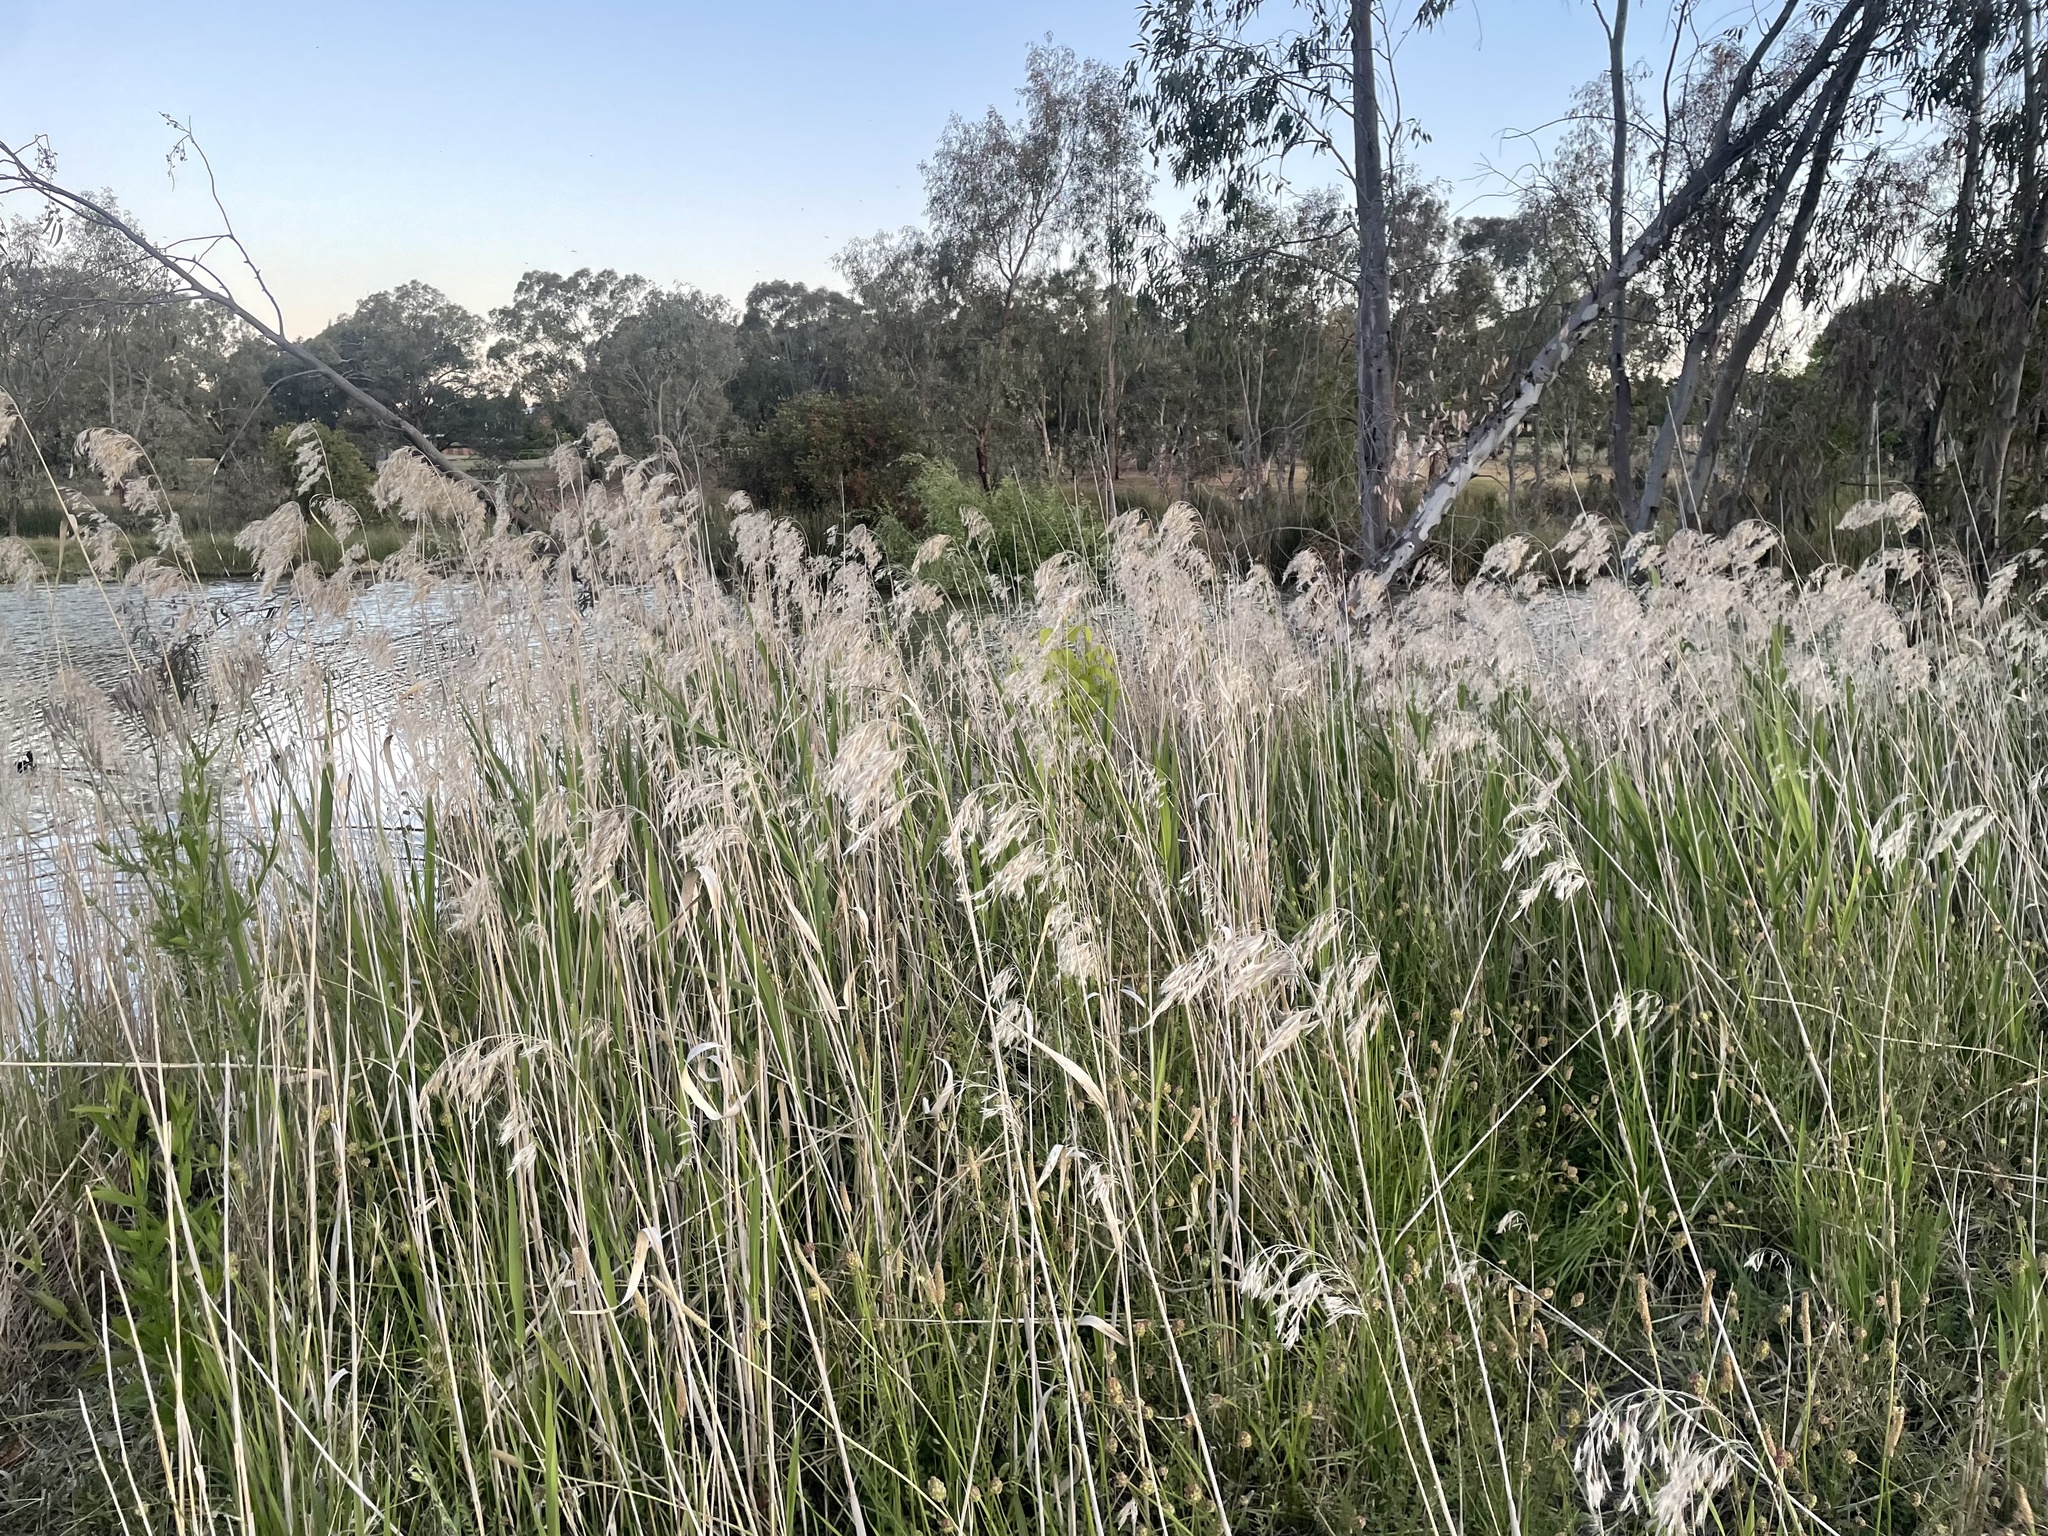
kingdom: Plantae
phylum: Tracheophyta
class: Liliopsida
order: Poales
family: Poaceae
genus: Phragmites
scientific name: Phragmites australis
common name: Common reed
